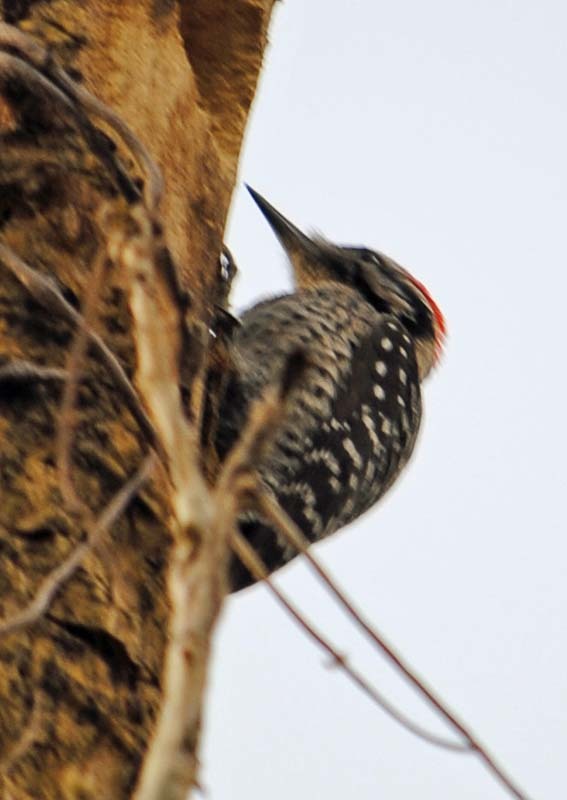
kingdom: Animalia
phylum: Chordata
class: Aves
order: Piciformes
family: Picidae
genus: Dryobates
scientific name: Dryobates scalaris
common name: Ladder-backed woodpecker
